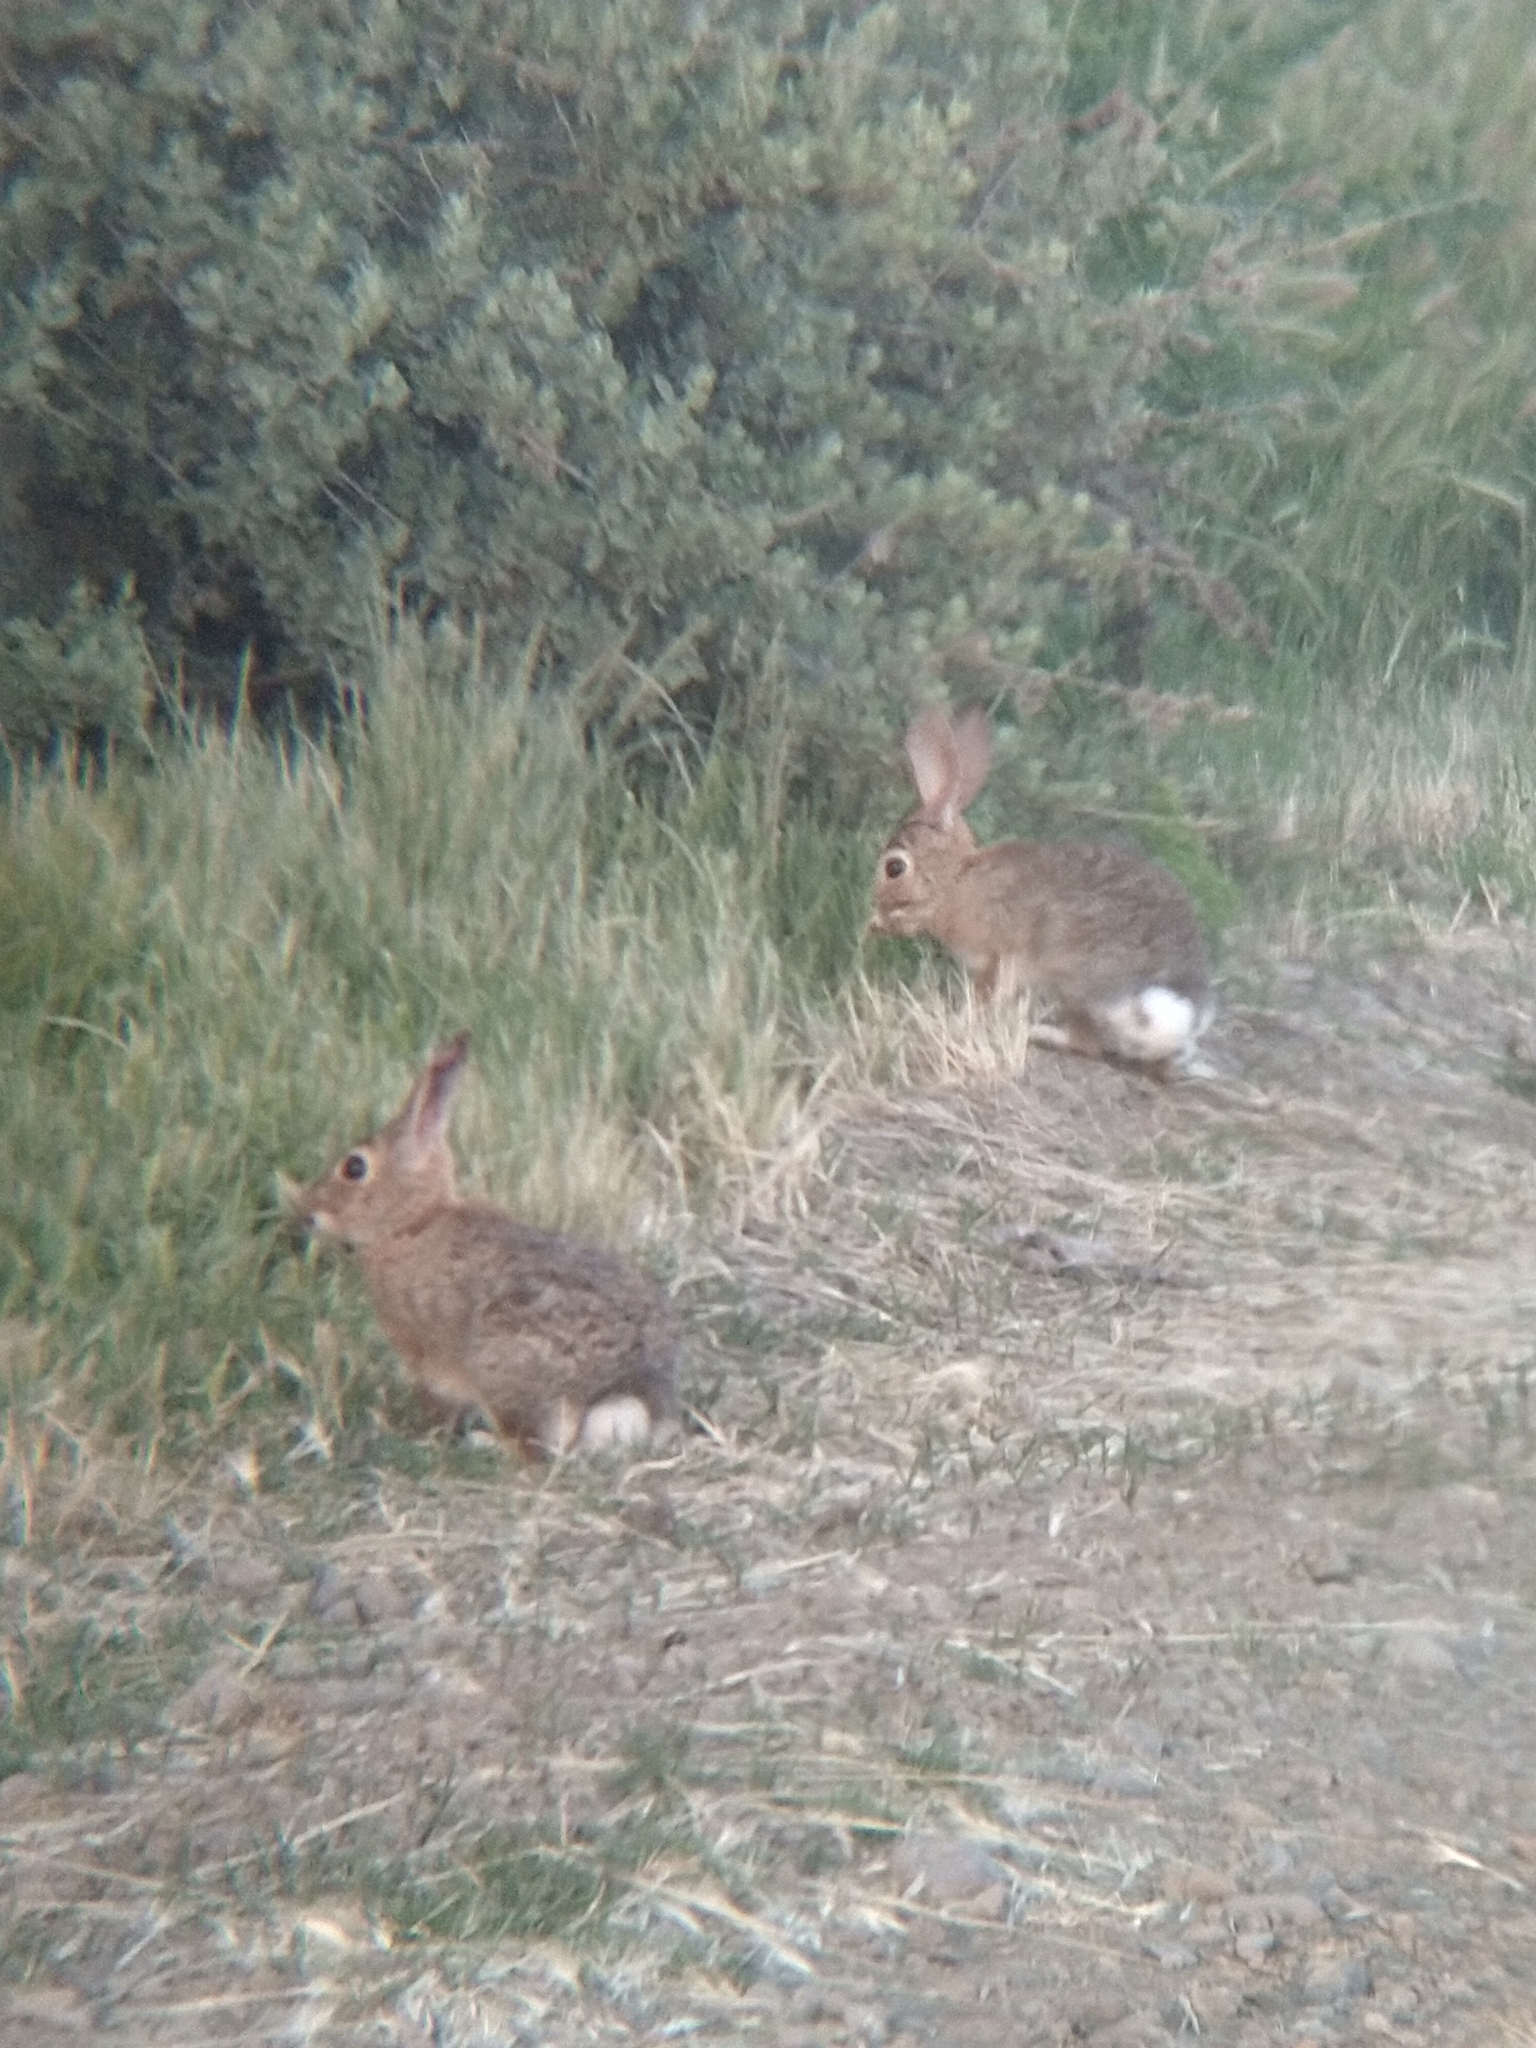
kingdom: Animalia
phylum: Chordata
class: Mammalia
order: Lagomorpha
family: Leporidae
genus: Sylvilagus
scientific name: Sylvilagus audubonii
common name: Desert cottontail
